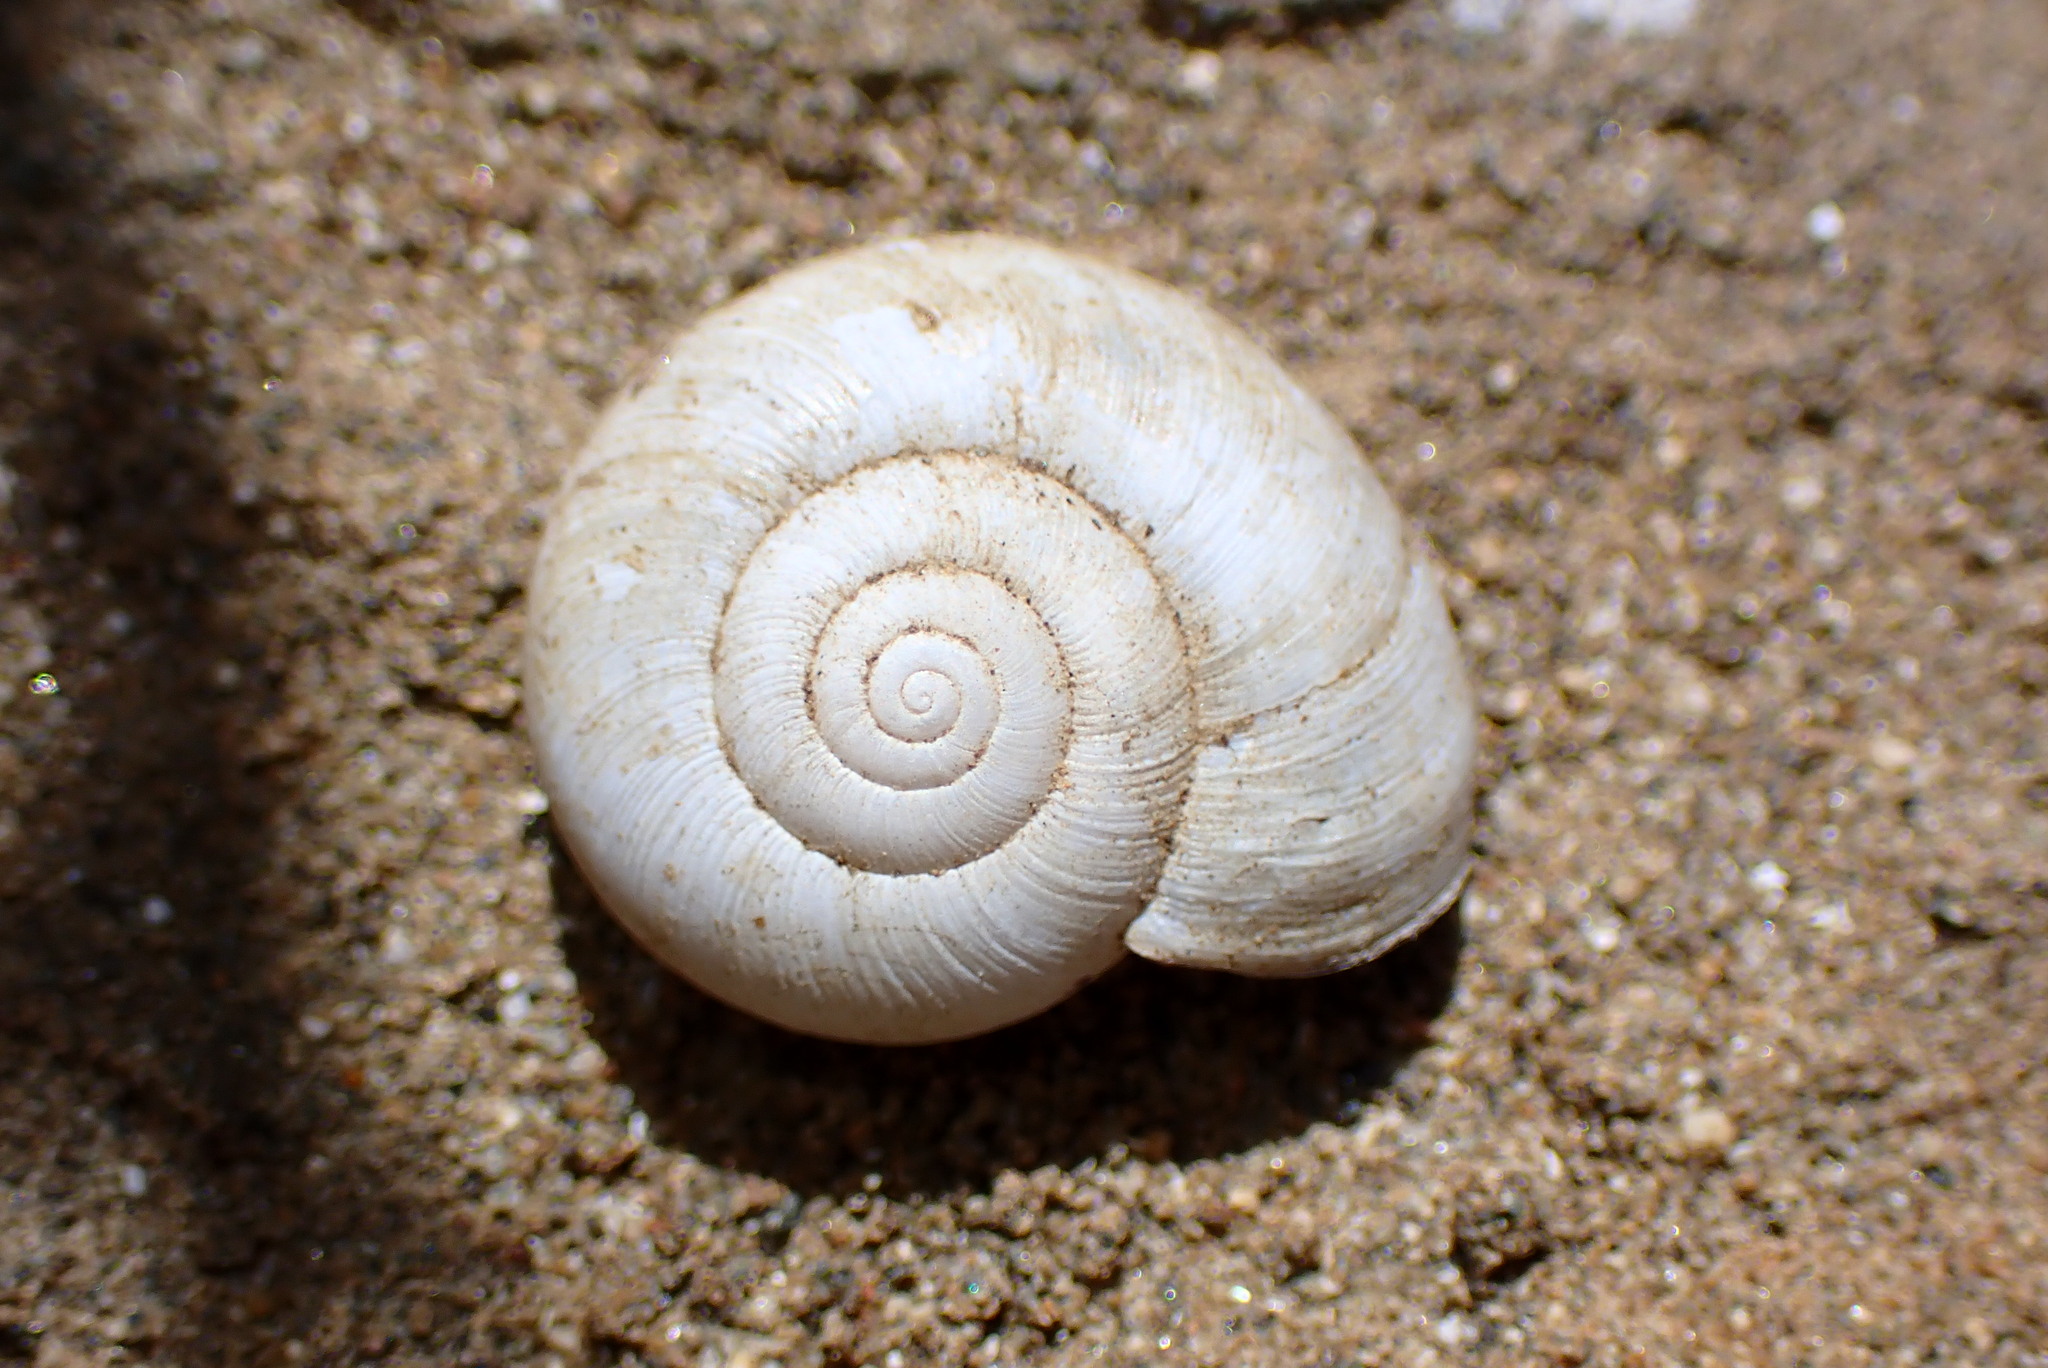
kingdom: Animalia
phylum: Mollusca
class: Gastropoda
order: Stylommatophora
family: Haplotrematidae
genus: Haplotrema
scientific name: Haplotrema minimum
